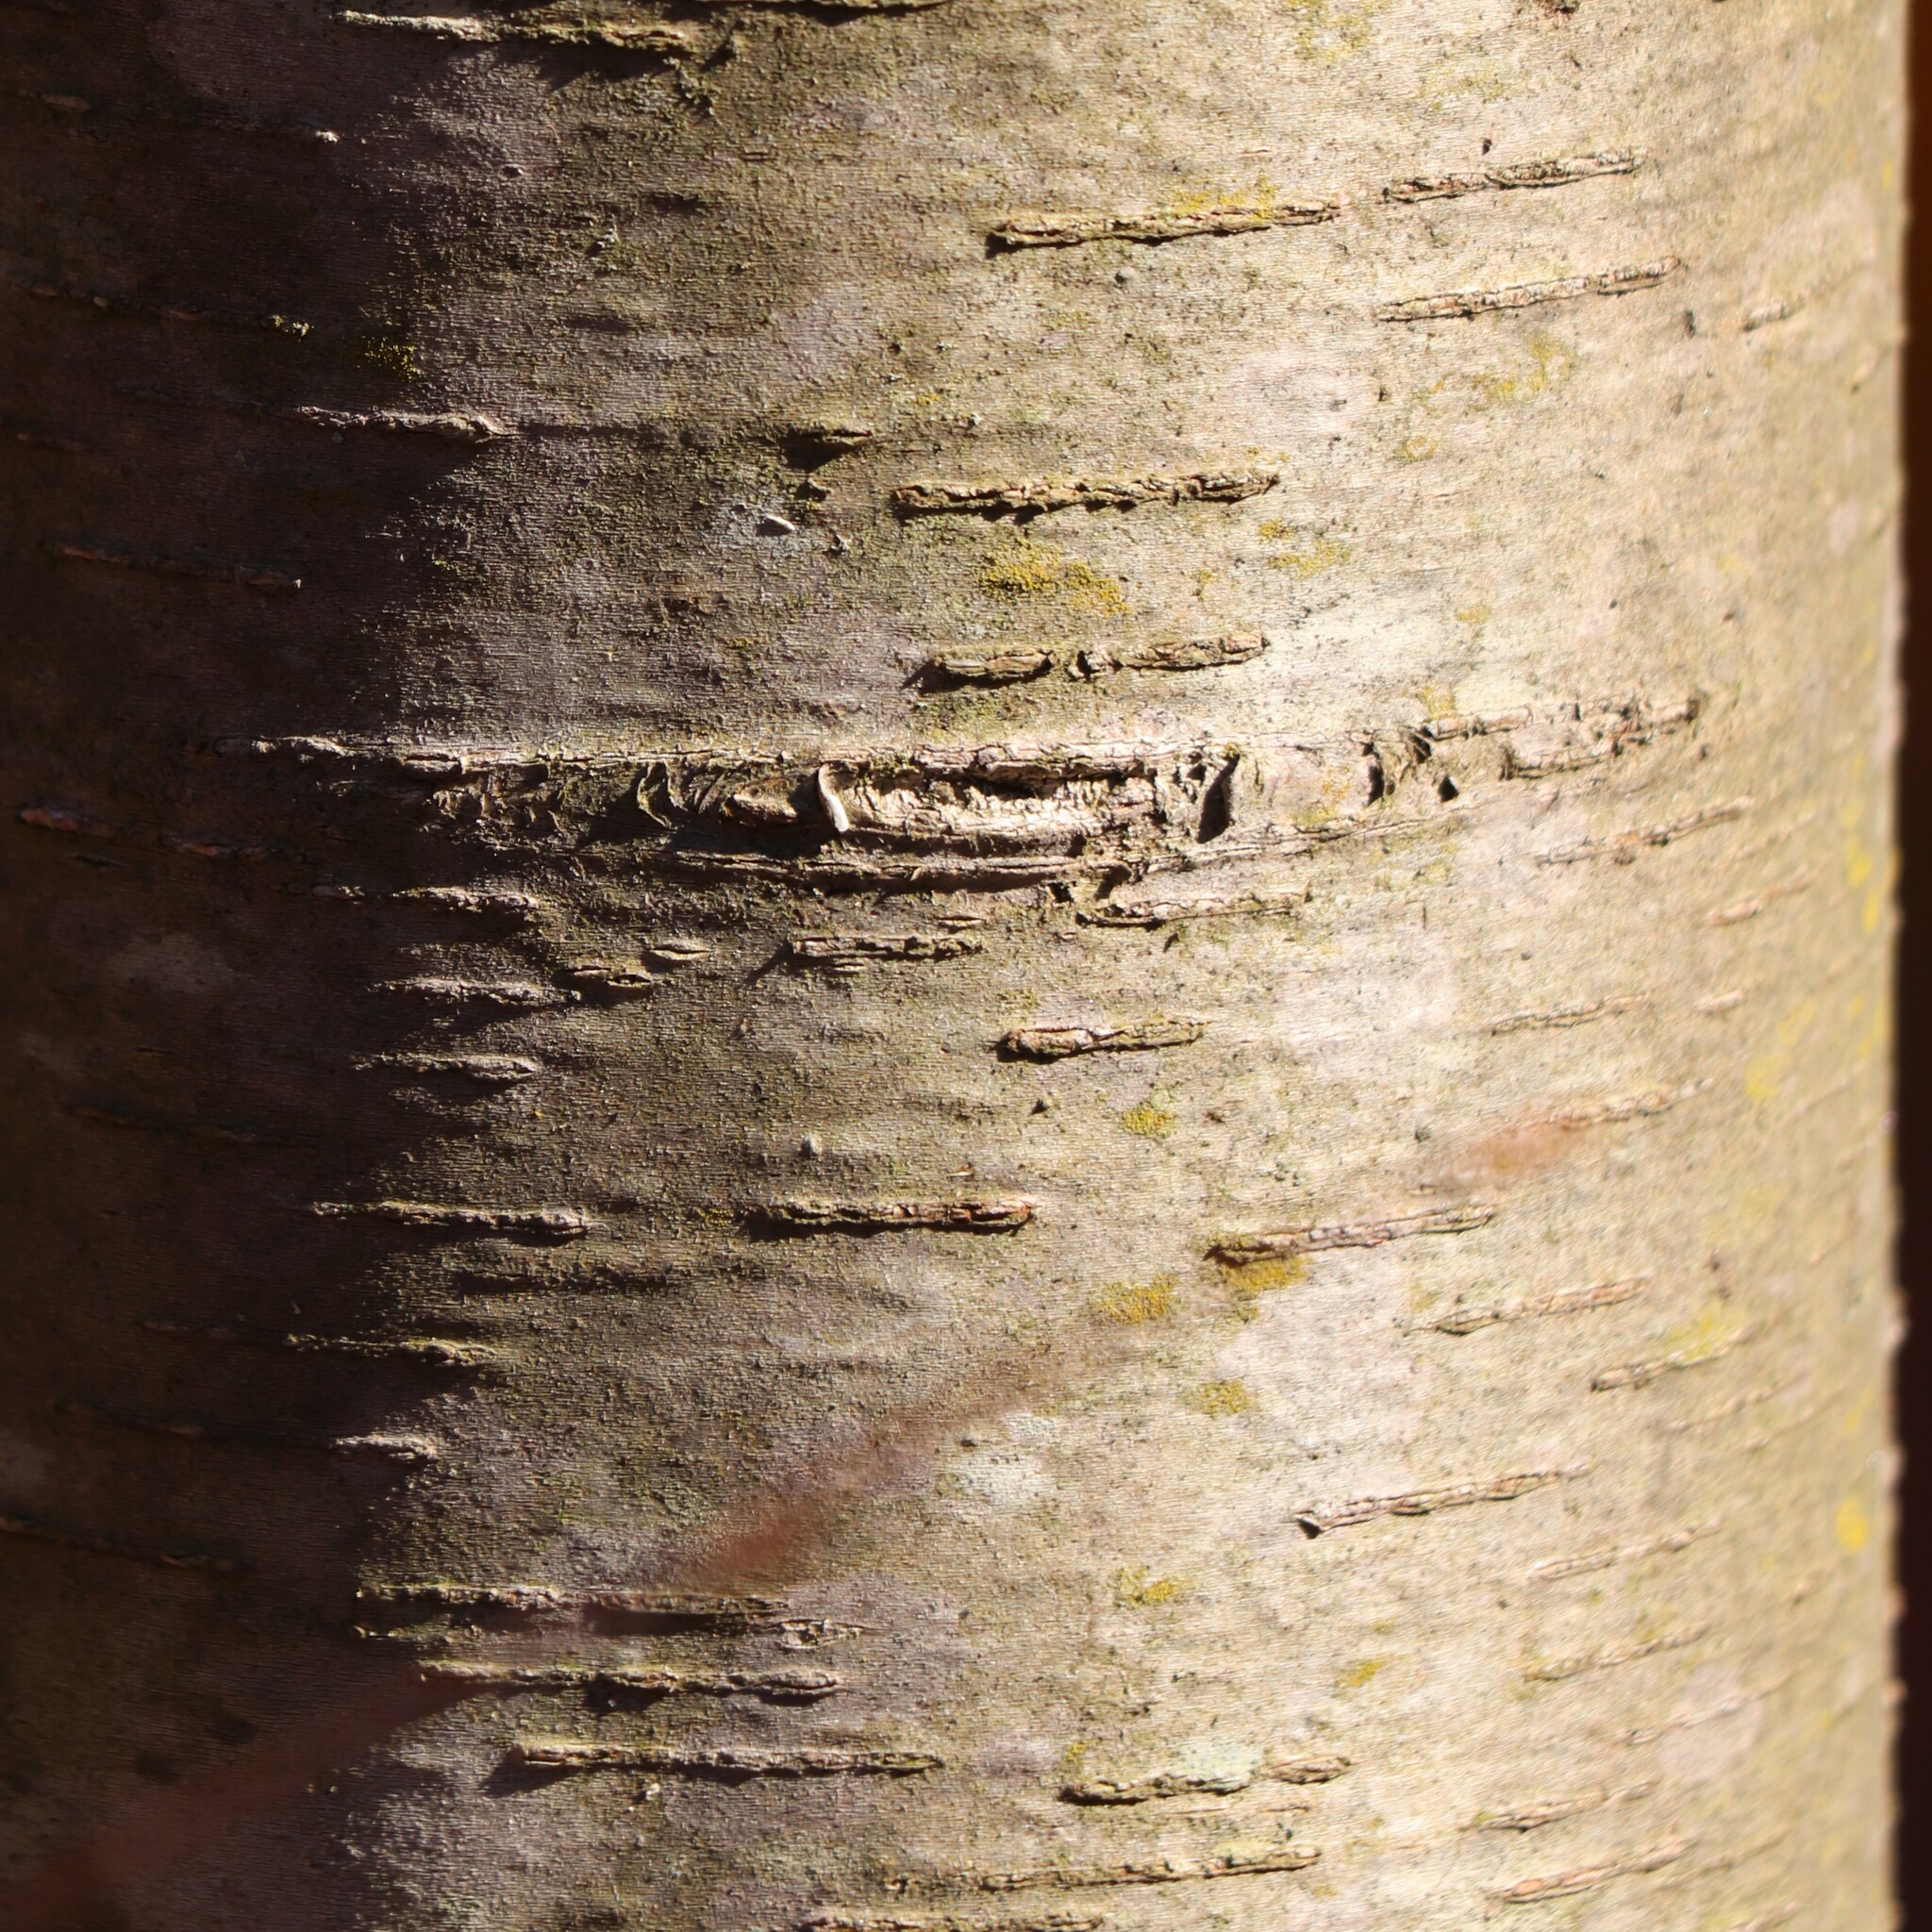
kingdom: Plantae
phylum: Tracheophyta
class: Magnoliopsida
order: Fagales
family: Betulaceae
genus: Betula
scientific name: Betula lenta
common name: Black birch
